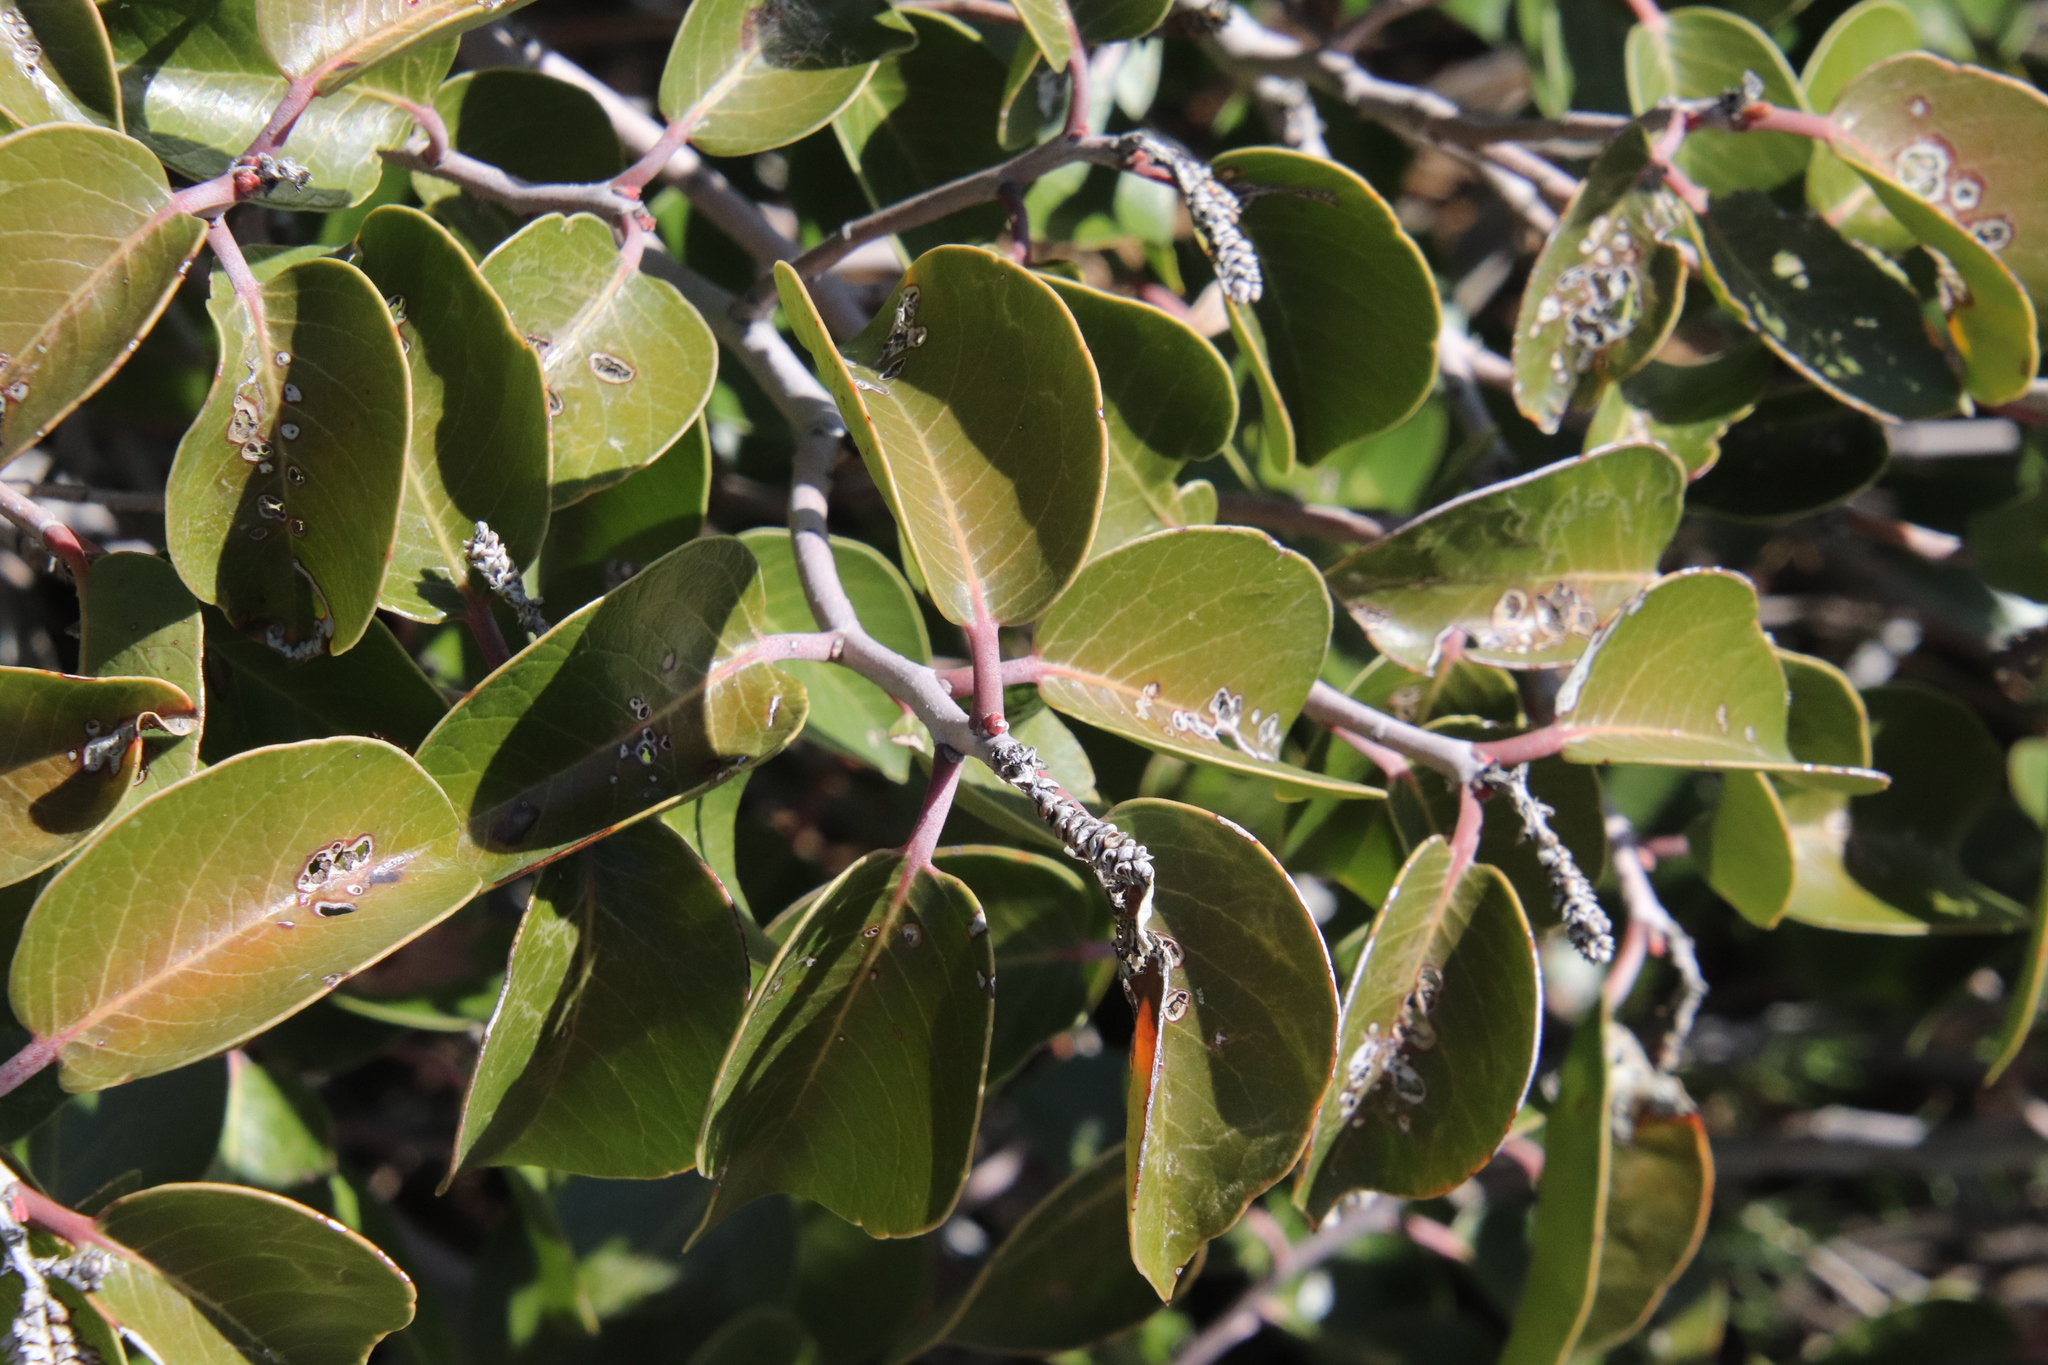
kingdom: Plantae
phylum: Tracheophyta
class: Magnoliopsida
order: Sapindales
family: Anacardiaceae
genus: Rhus
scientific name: Rhus ovata
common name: Sugar sumac
